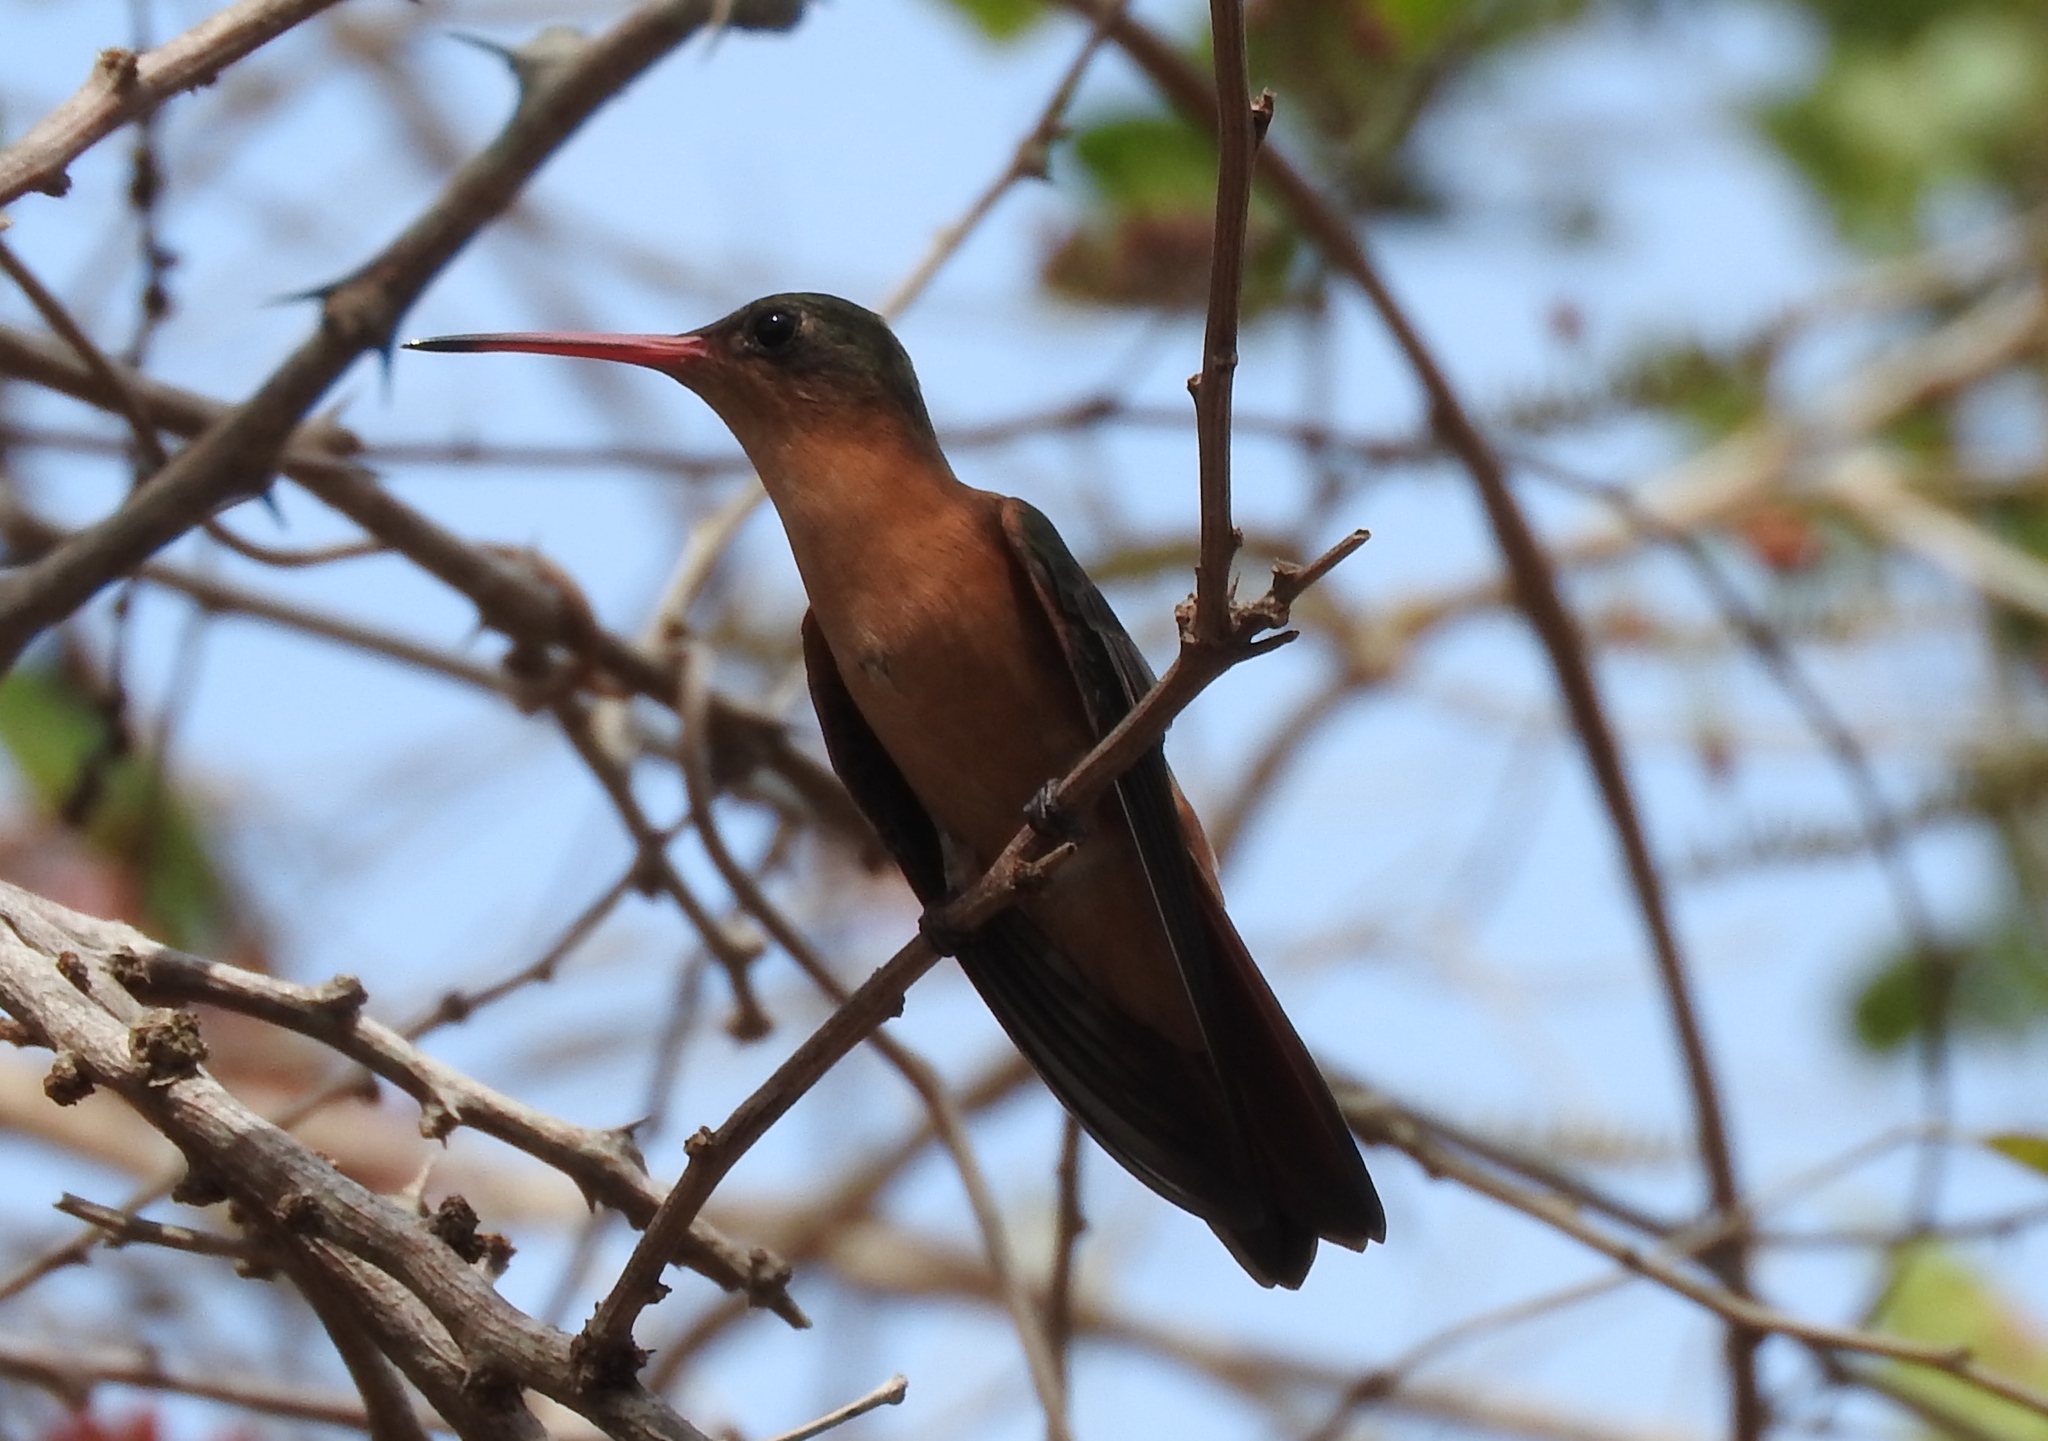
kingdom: Animalia
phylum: Chordata
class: Aves
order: Apodiformes
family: Trochilidae
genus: Amazilia
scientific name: Amazilia rutila
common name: Cinnamon hummingbird
